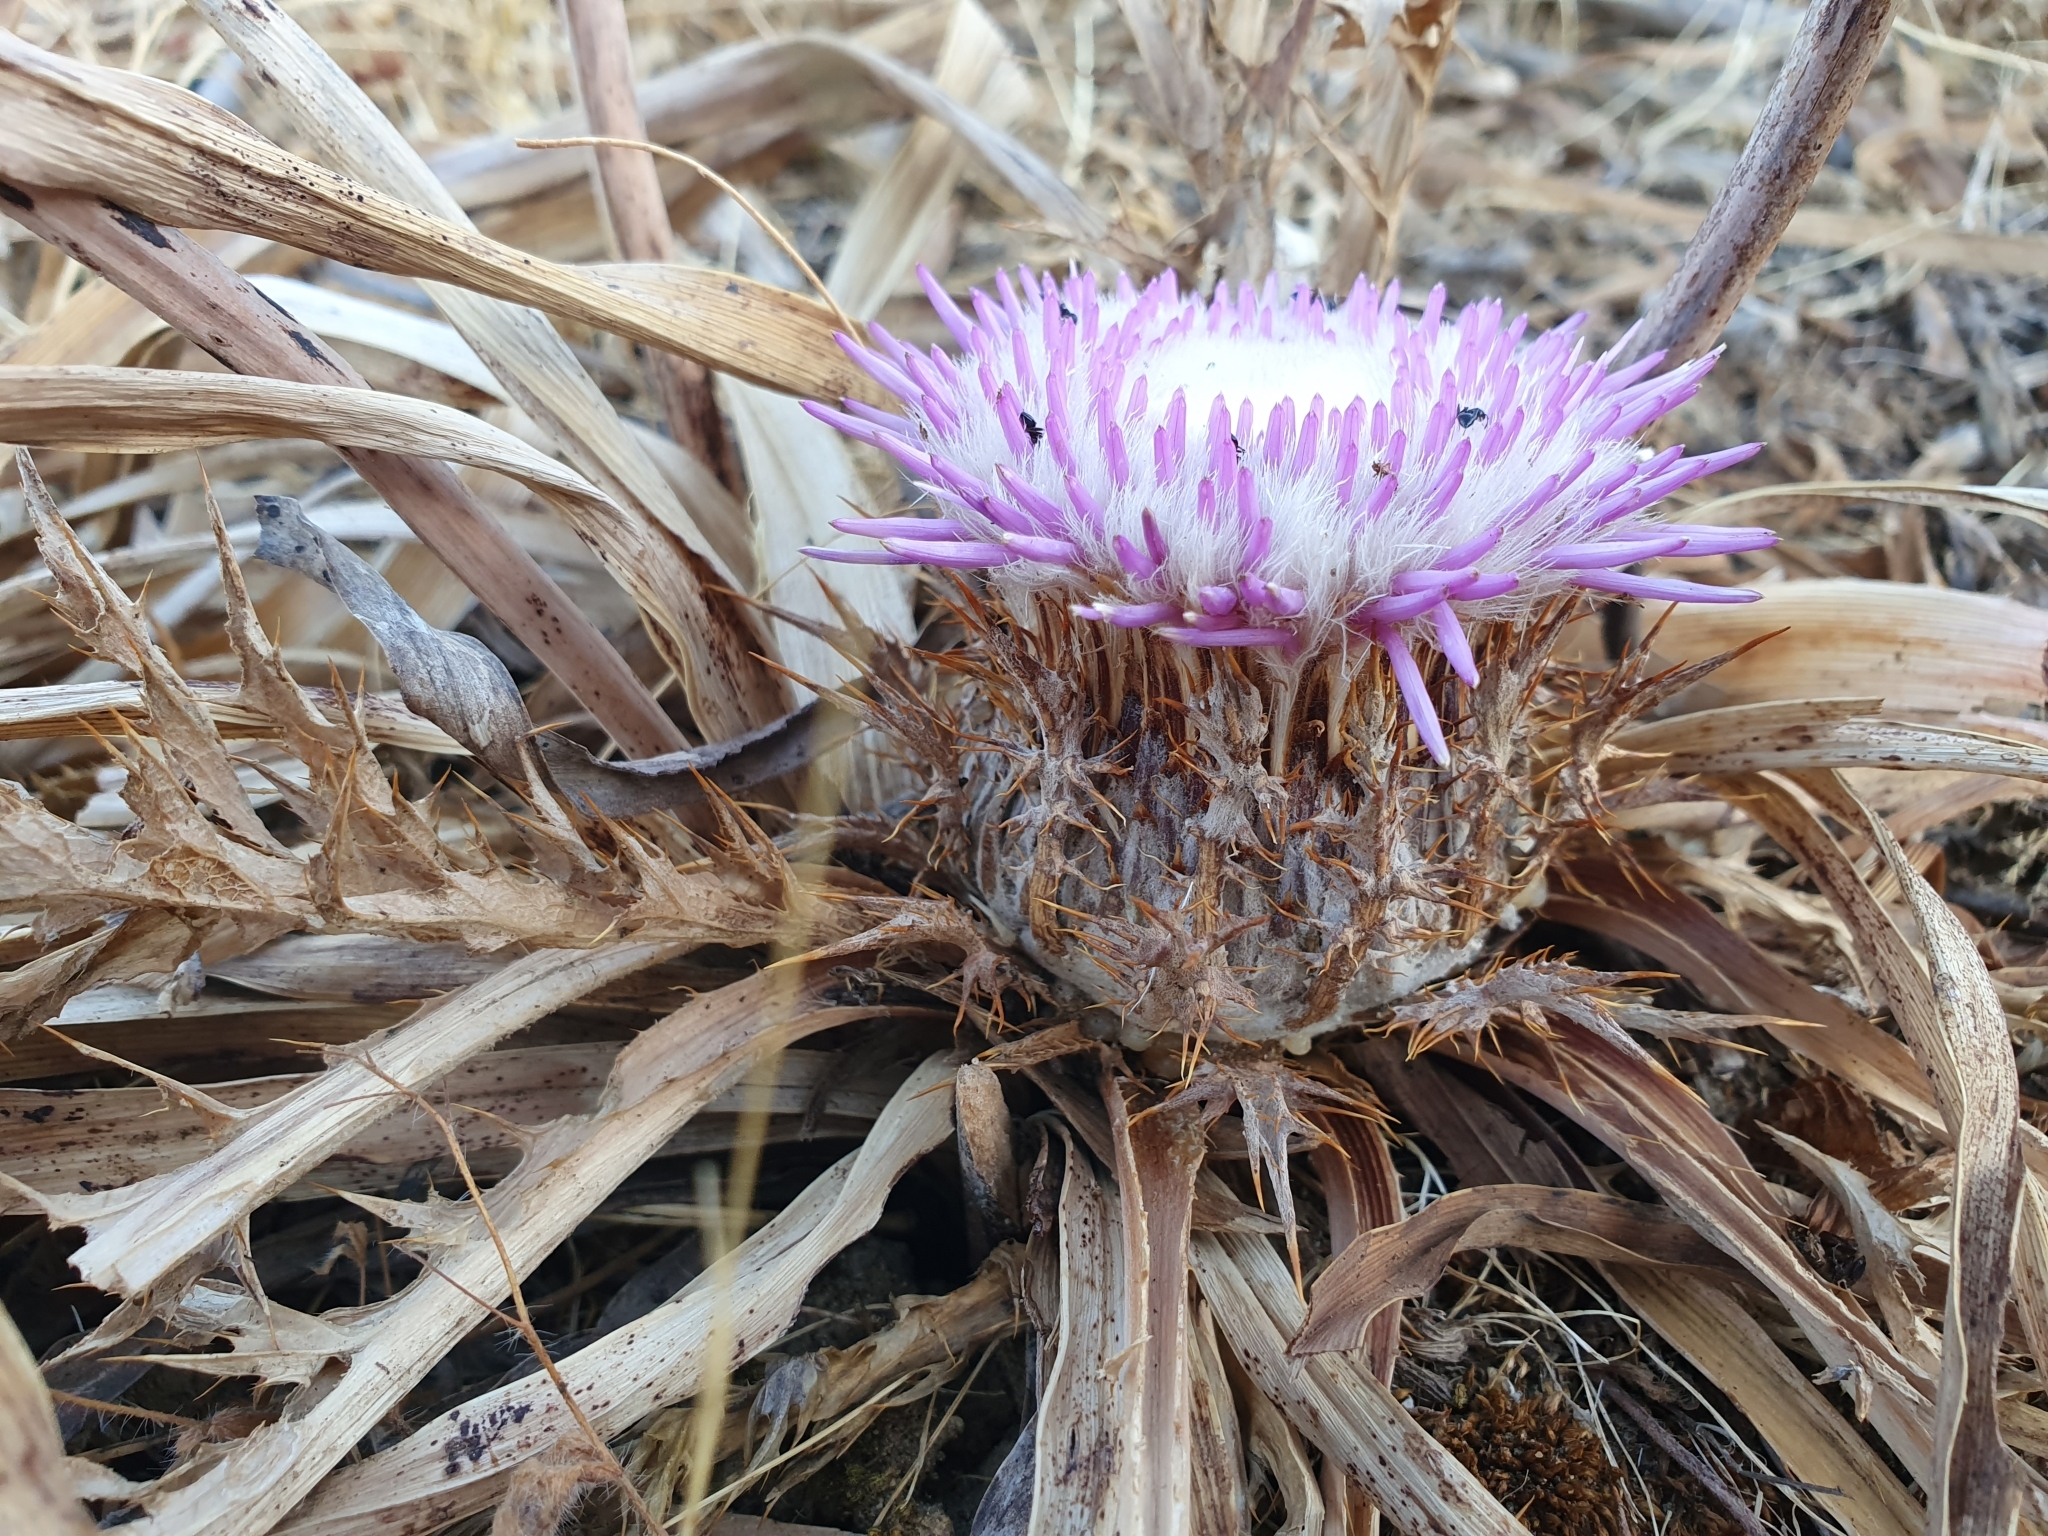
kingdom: Plantae
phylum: Tracheophyta
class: Magnoliopsida
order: Asterales
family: Asteraceae
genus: Chamaeleon
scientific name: Chamaeleon gummifer
